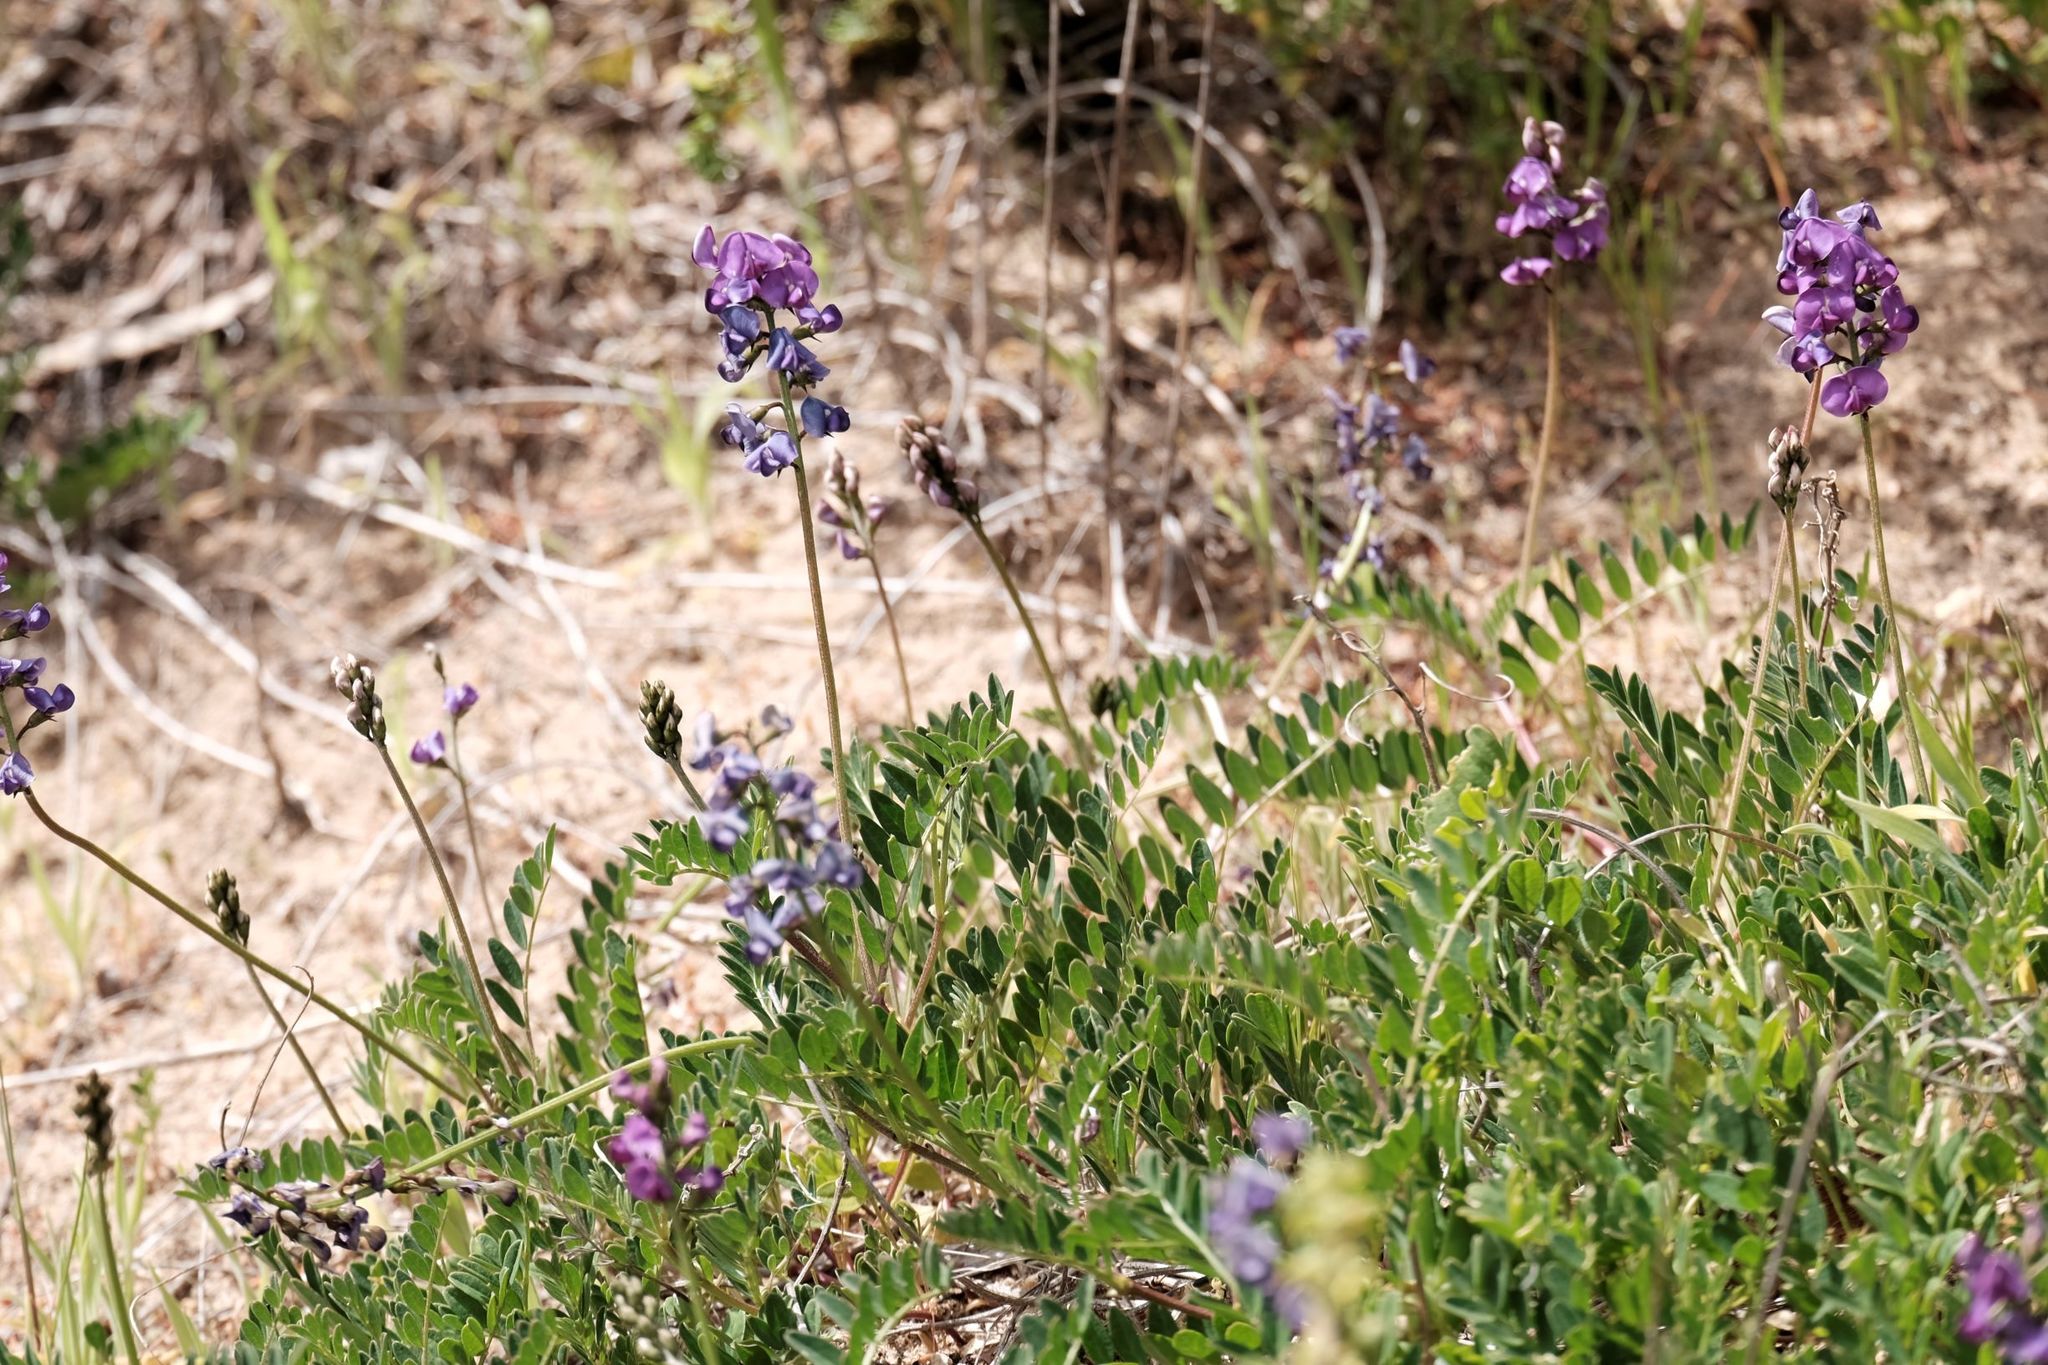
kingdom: Plantae
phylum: Tracheophyta
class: Magnoliopsida
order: Fabales
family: Fabaceae
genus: Swainsona
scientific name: Swainsona lessertiifolia
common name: Bog-pea
